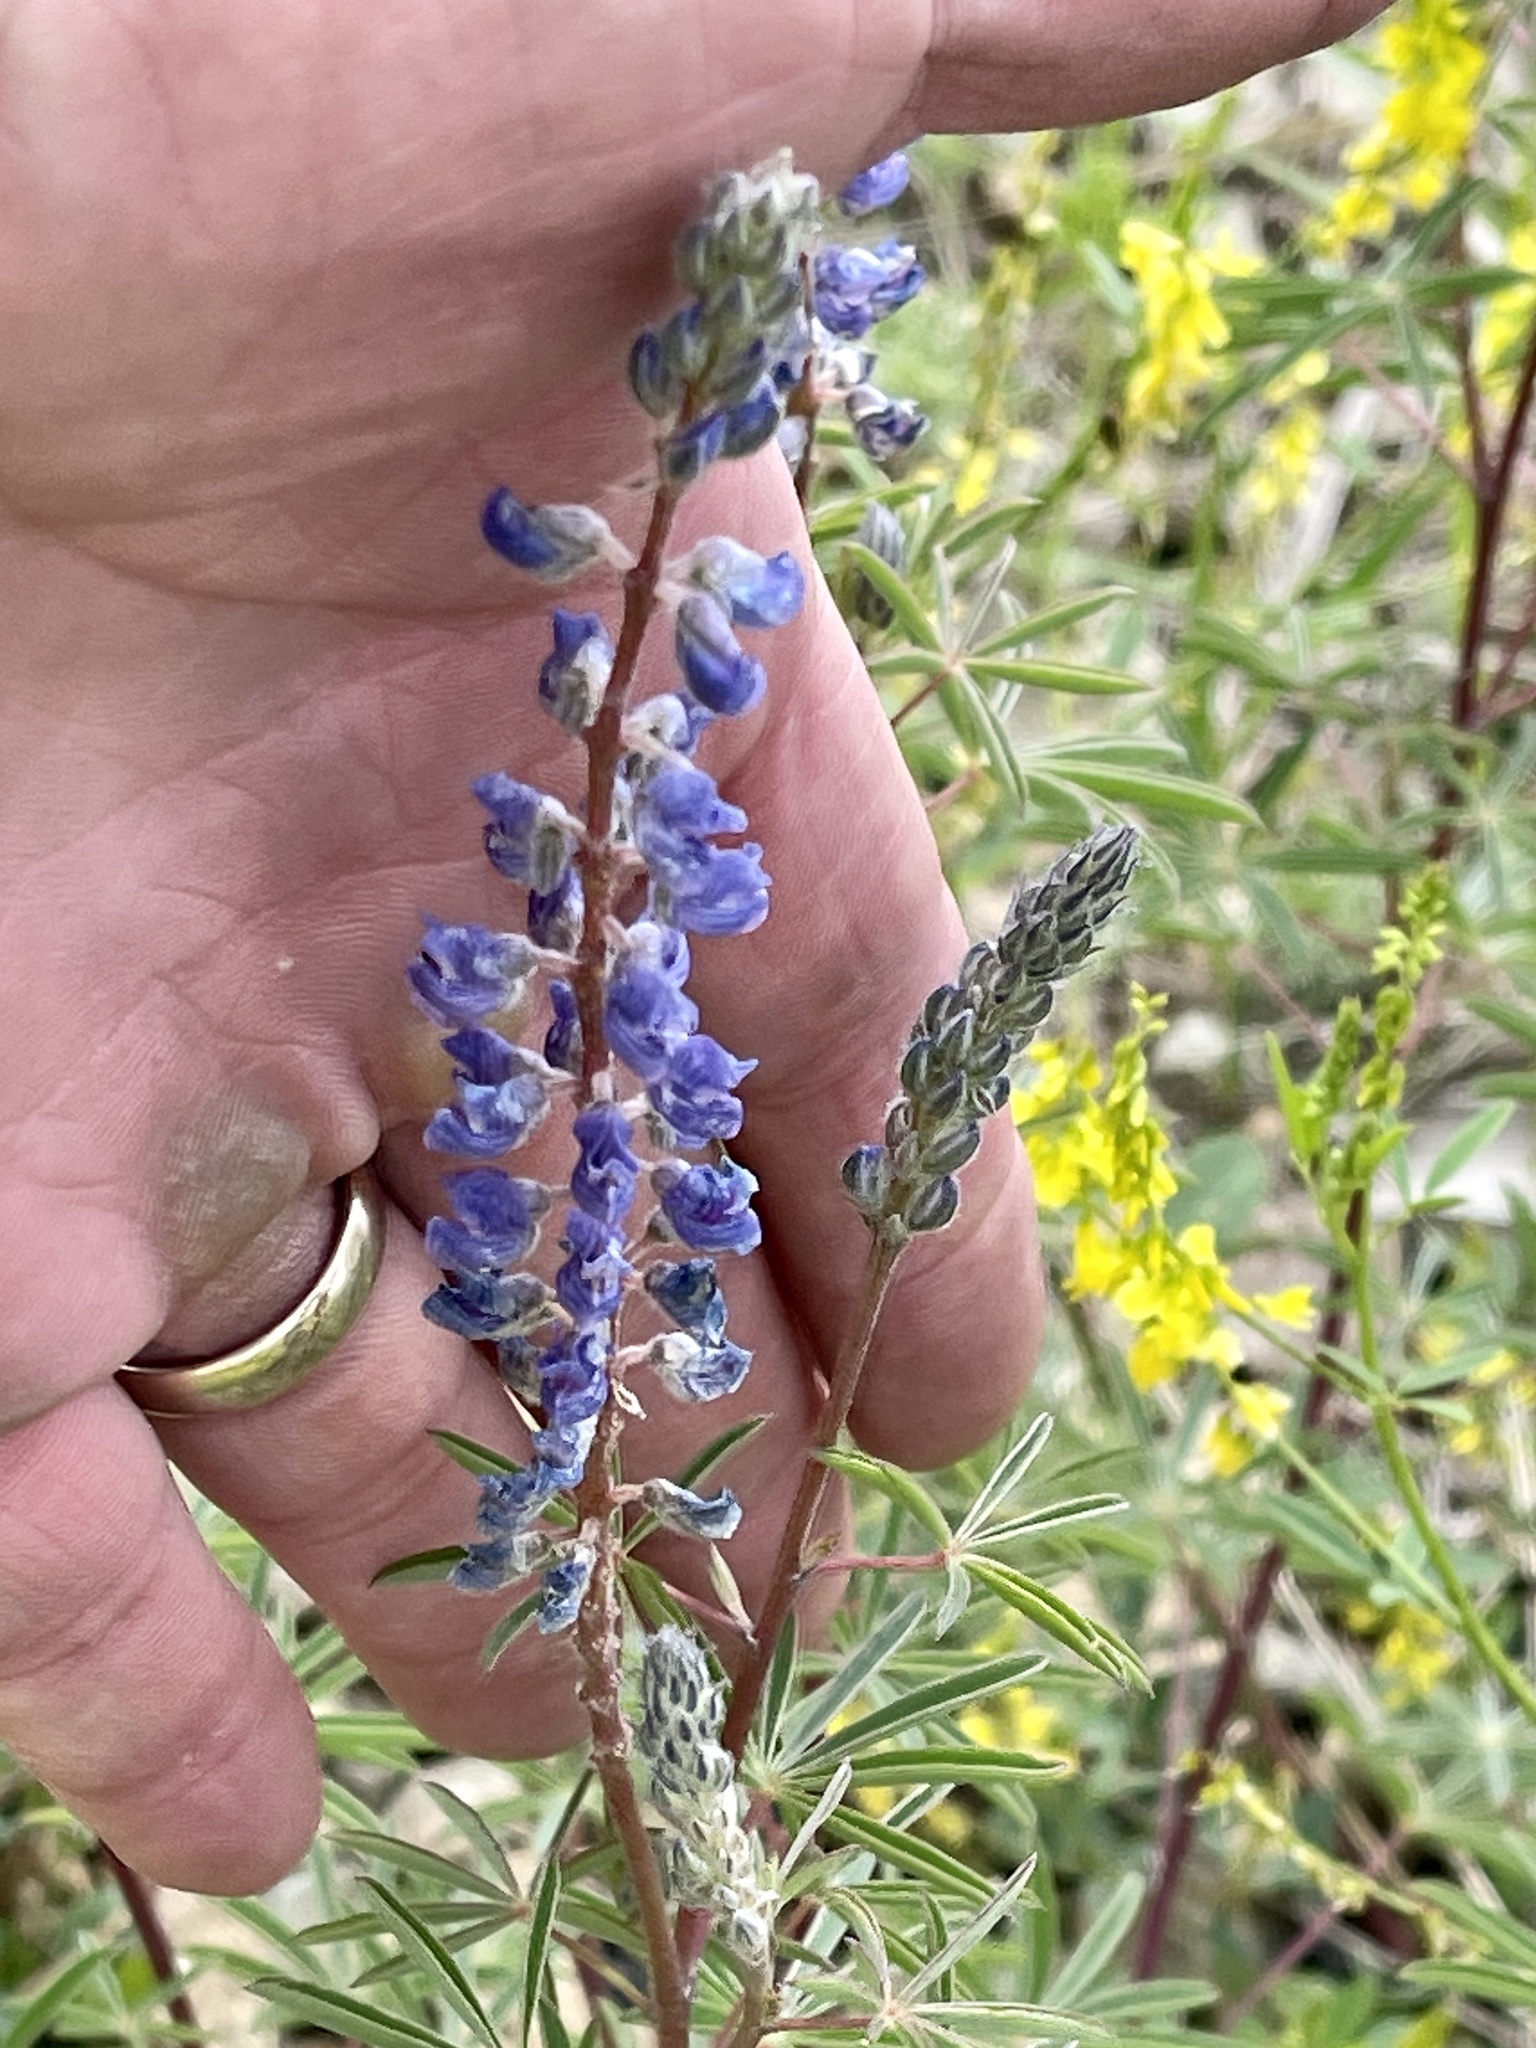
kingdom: Plantae
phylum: Tracheophyta
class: Magnoliopsida
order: Fabales
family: Fabaceae
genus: Lupinus
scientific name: Lupinus argenteus
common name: Silvery lupine
